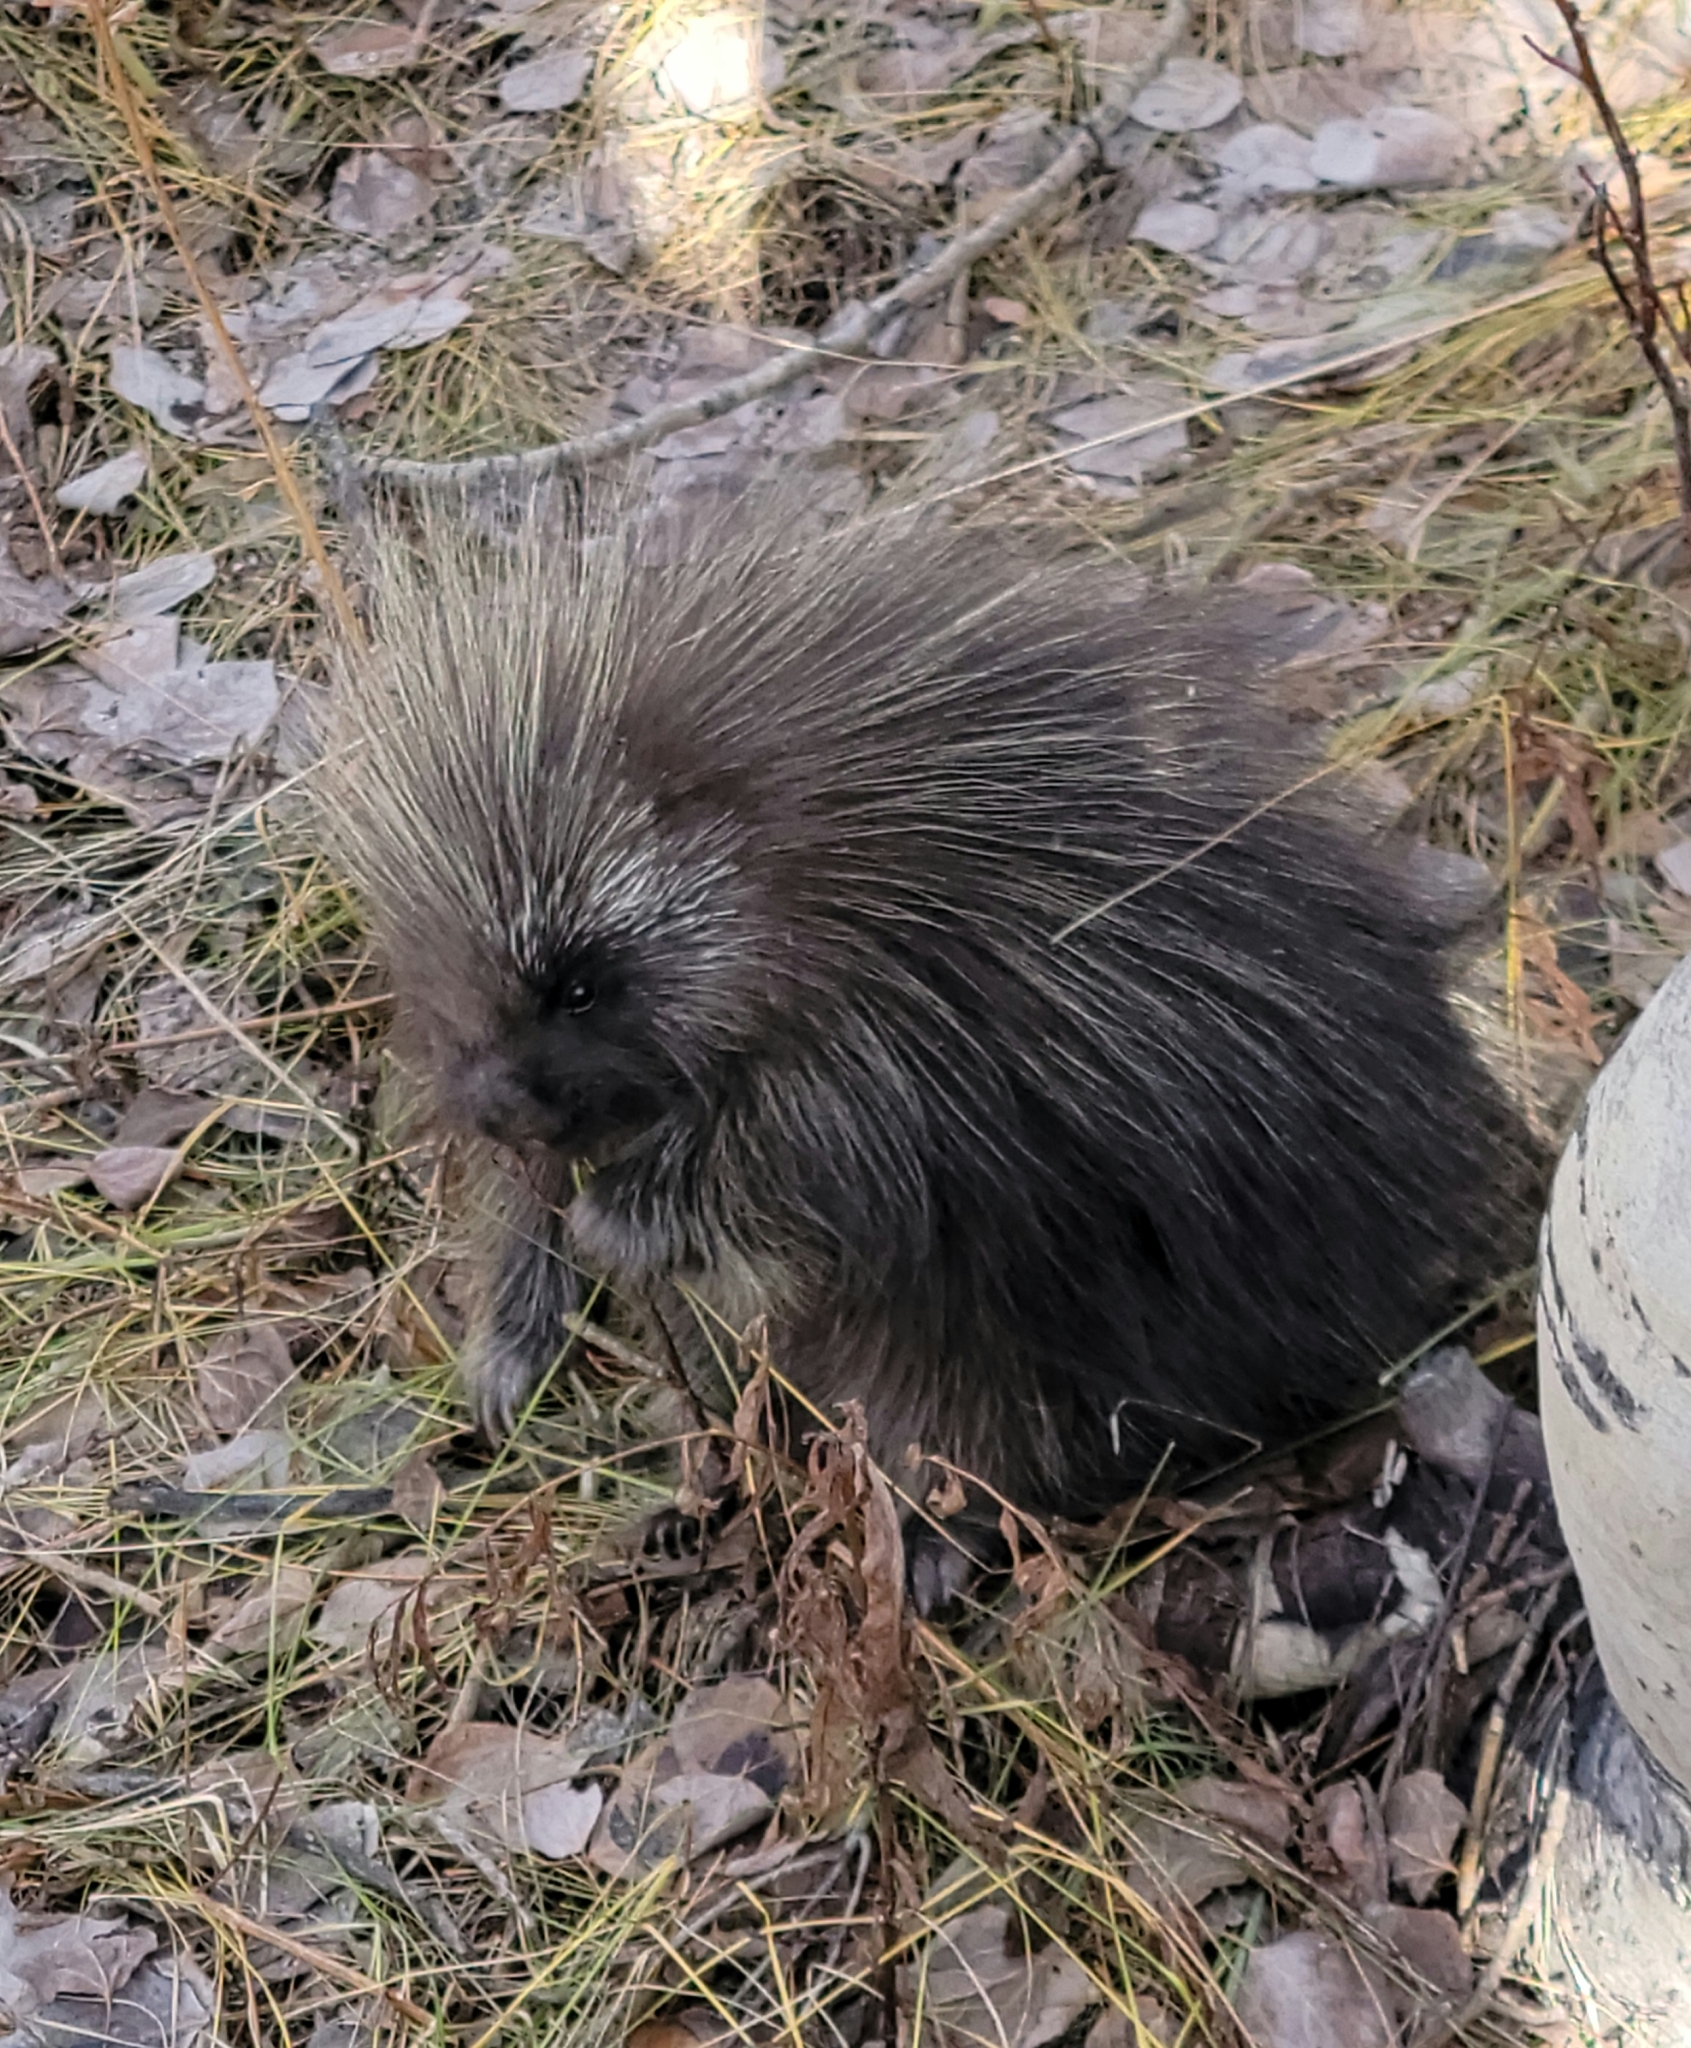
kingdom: Animalia
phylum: Chordata
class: Mammalia
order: Rodentia
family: Erethizontidae
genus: Erethizon
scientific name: Erethizon dorsatus
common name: North american porcupine
